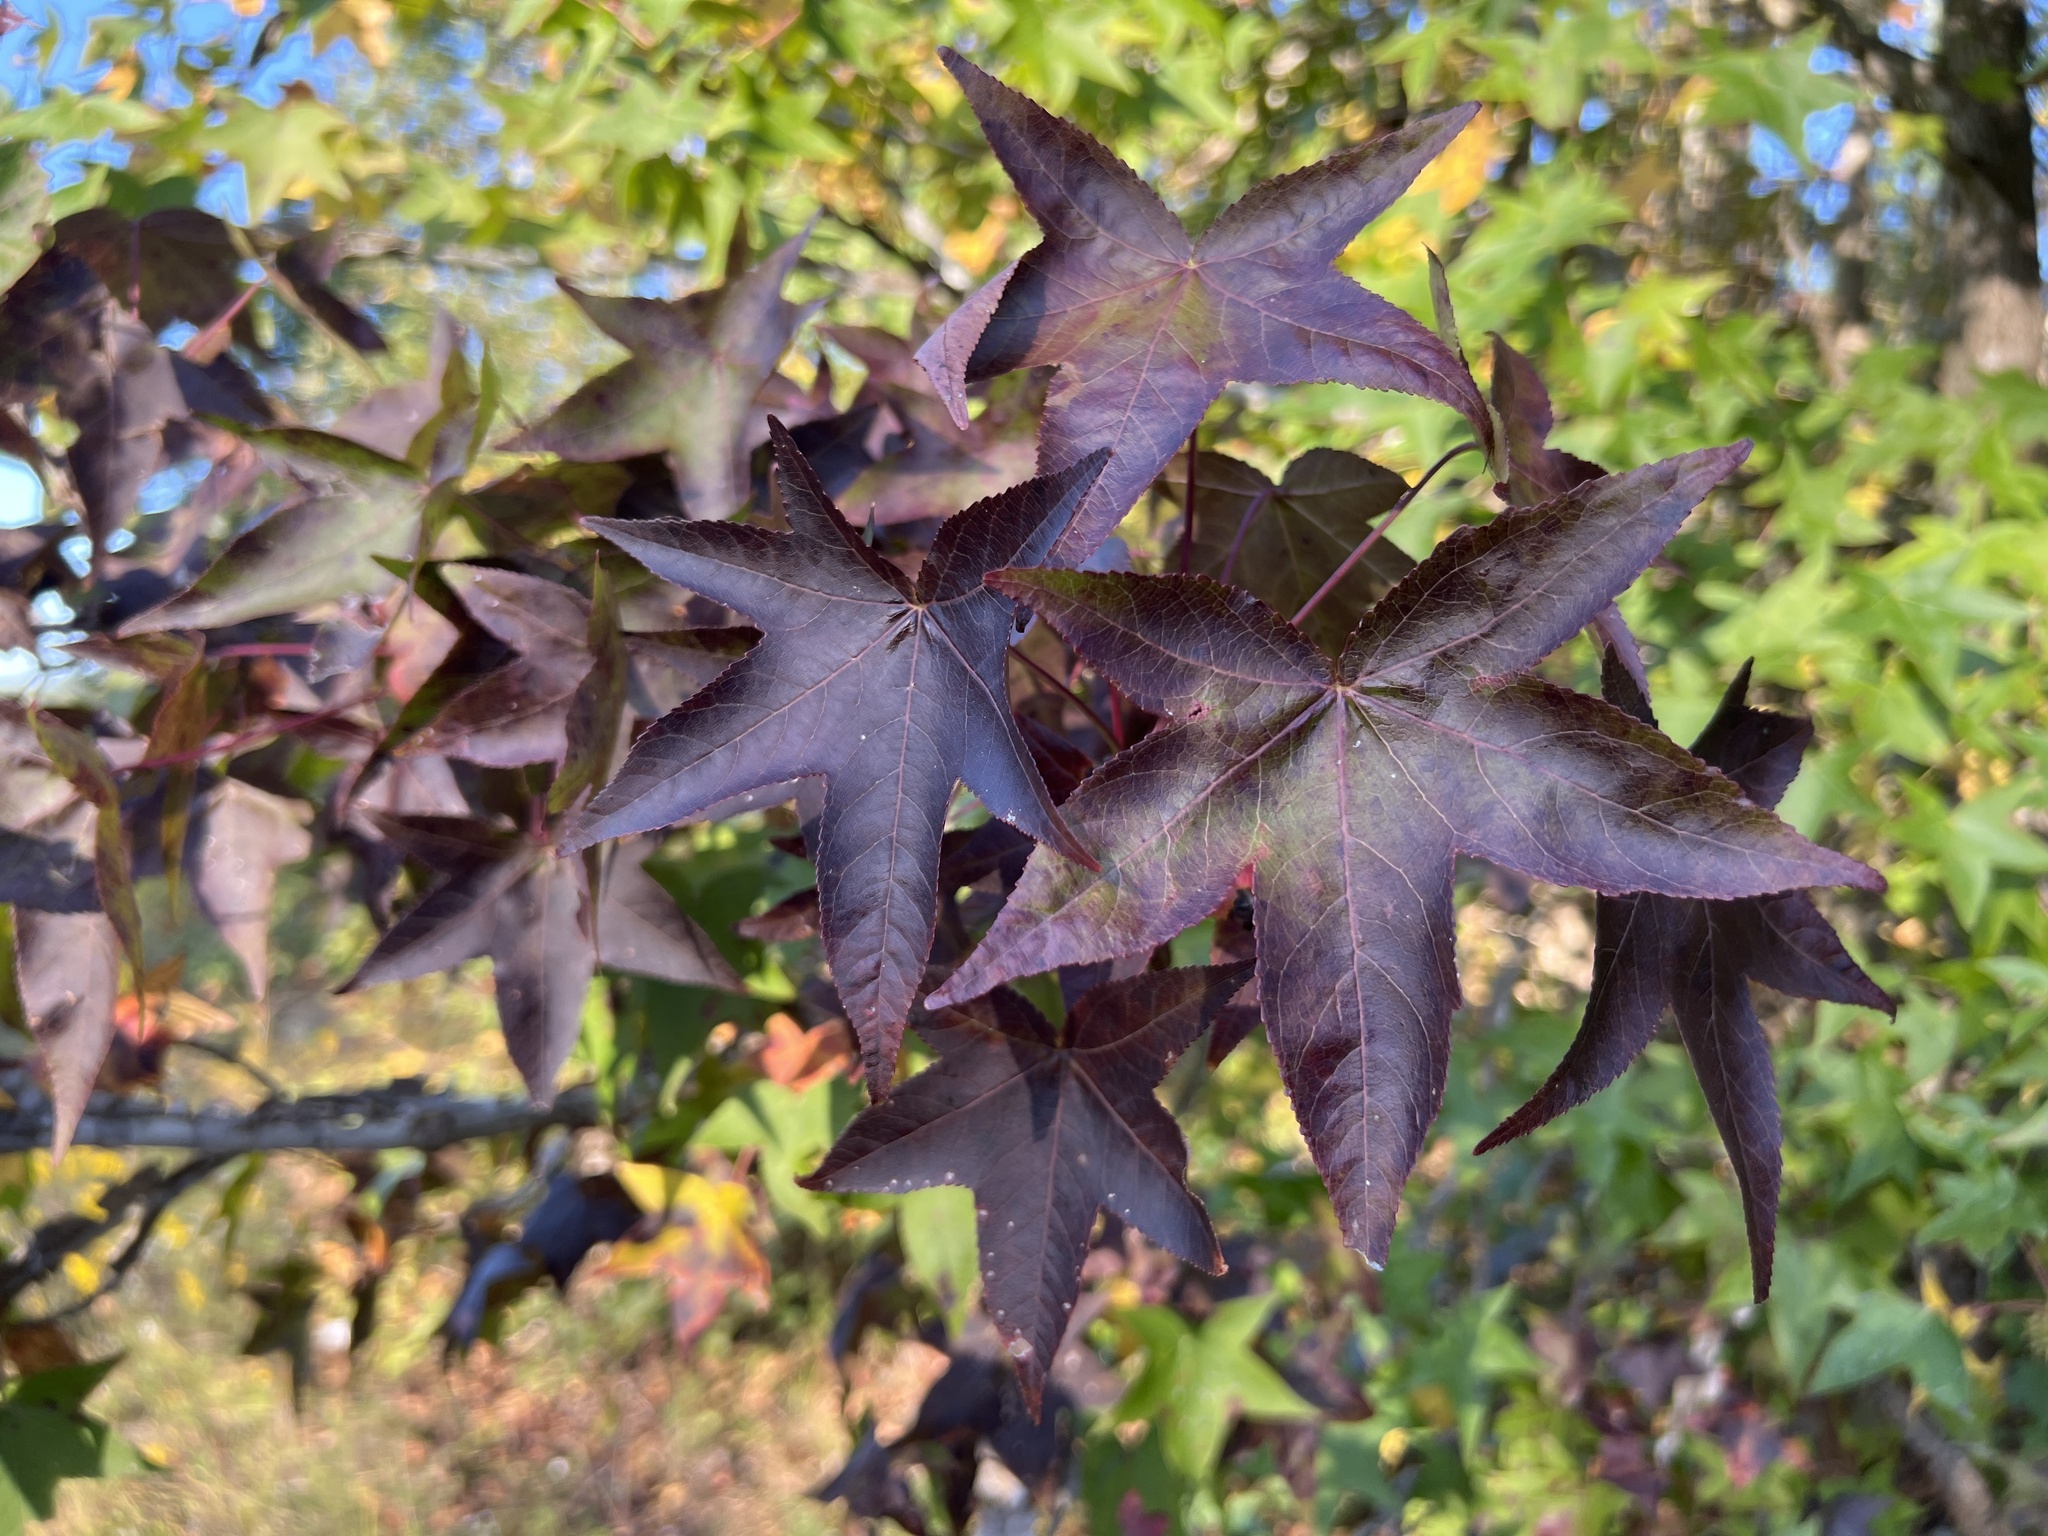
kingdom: Plantae
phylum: Tracheophyta
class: Magnoliopsida
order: Saxifragales
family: Altingiaceae
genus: Liquidambar
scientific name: Liquidambar styraciflua
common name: Sweet gum
